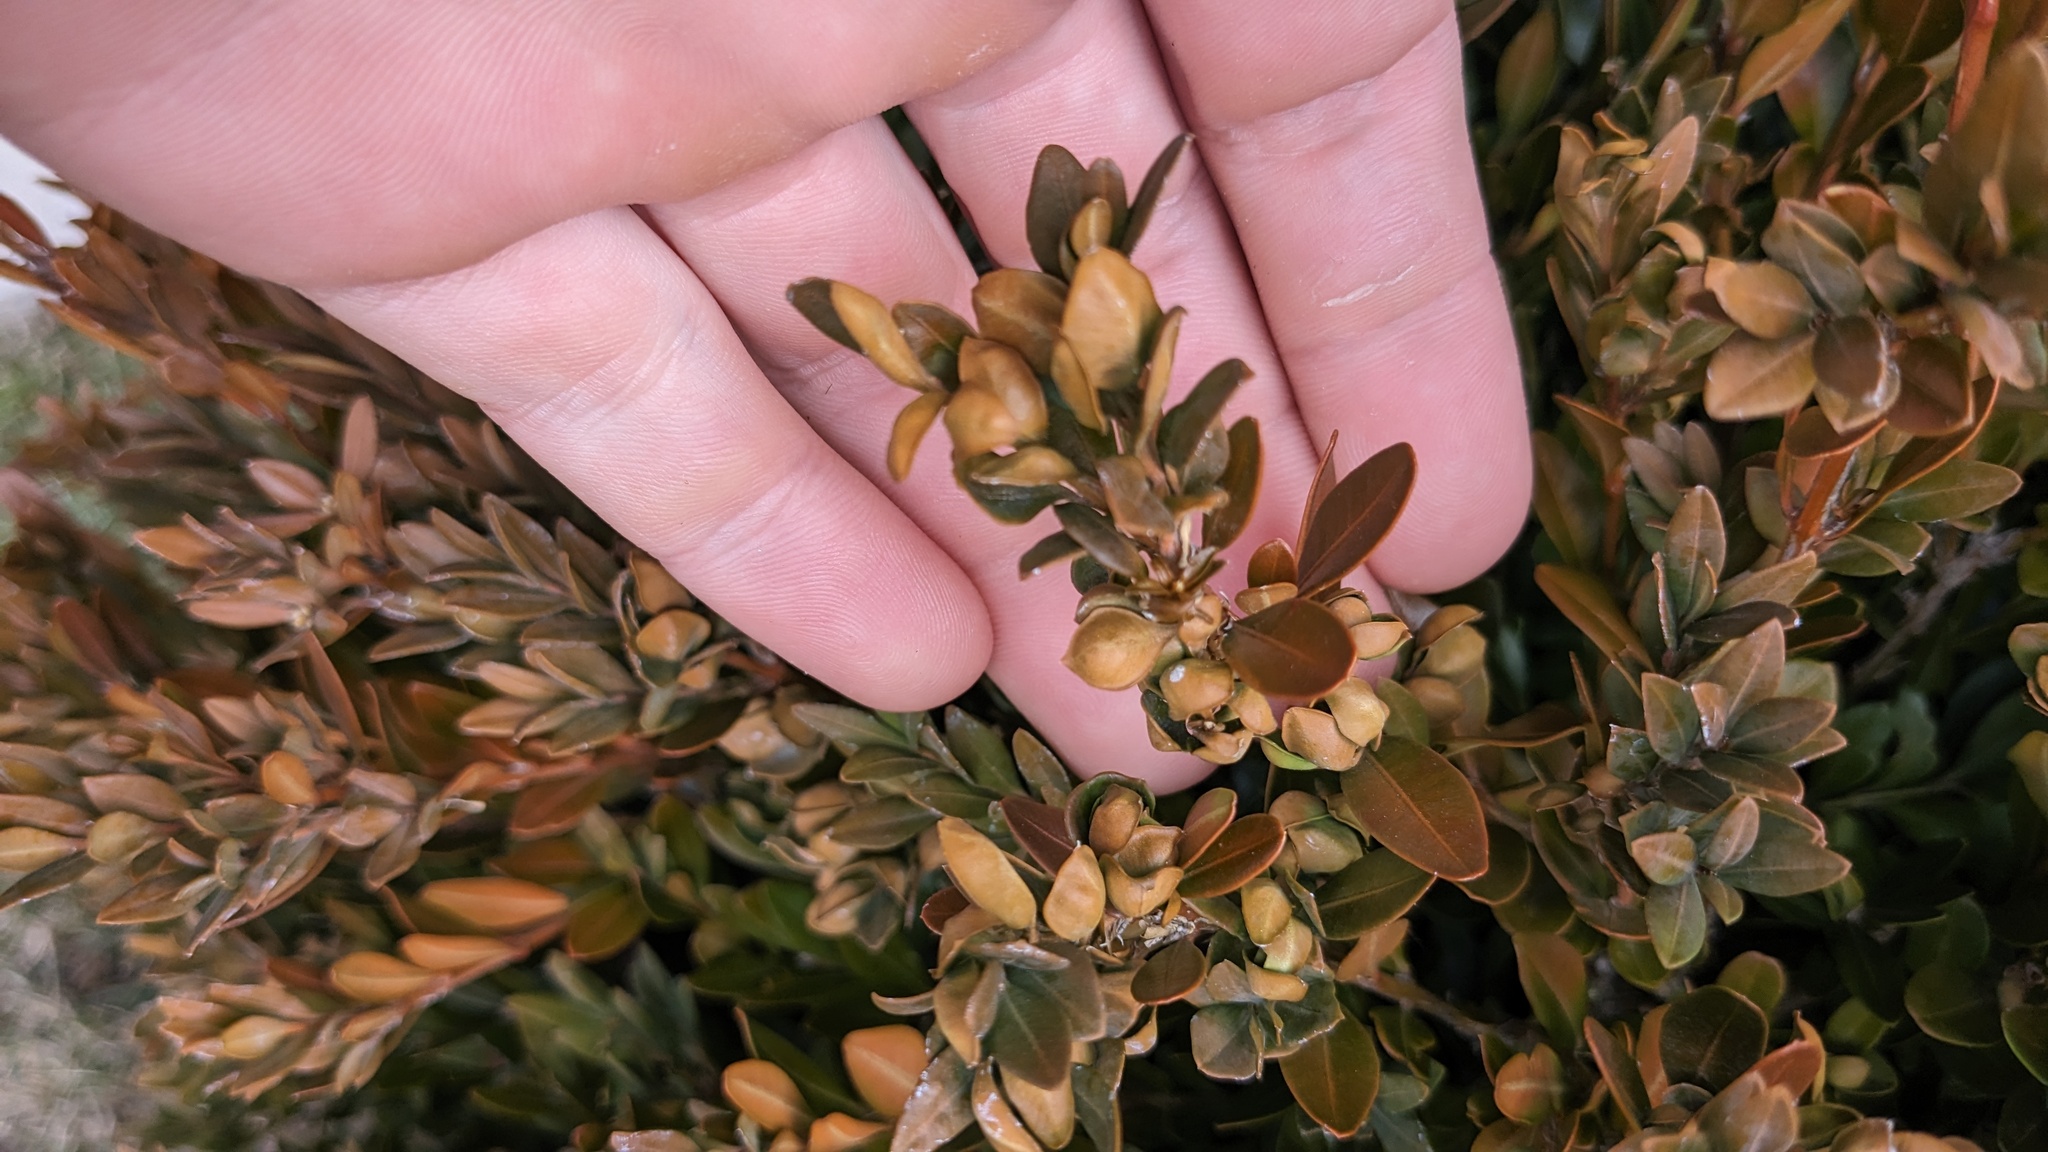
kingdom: Animalia
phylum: Arthropoda
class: Insecta
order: Hemiptera
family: Psyllidae
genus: Psylla
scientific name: Psylla buxi
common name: Boxwood psyllid
